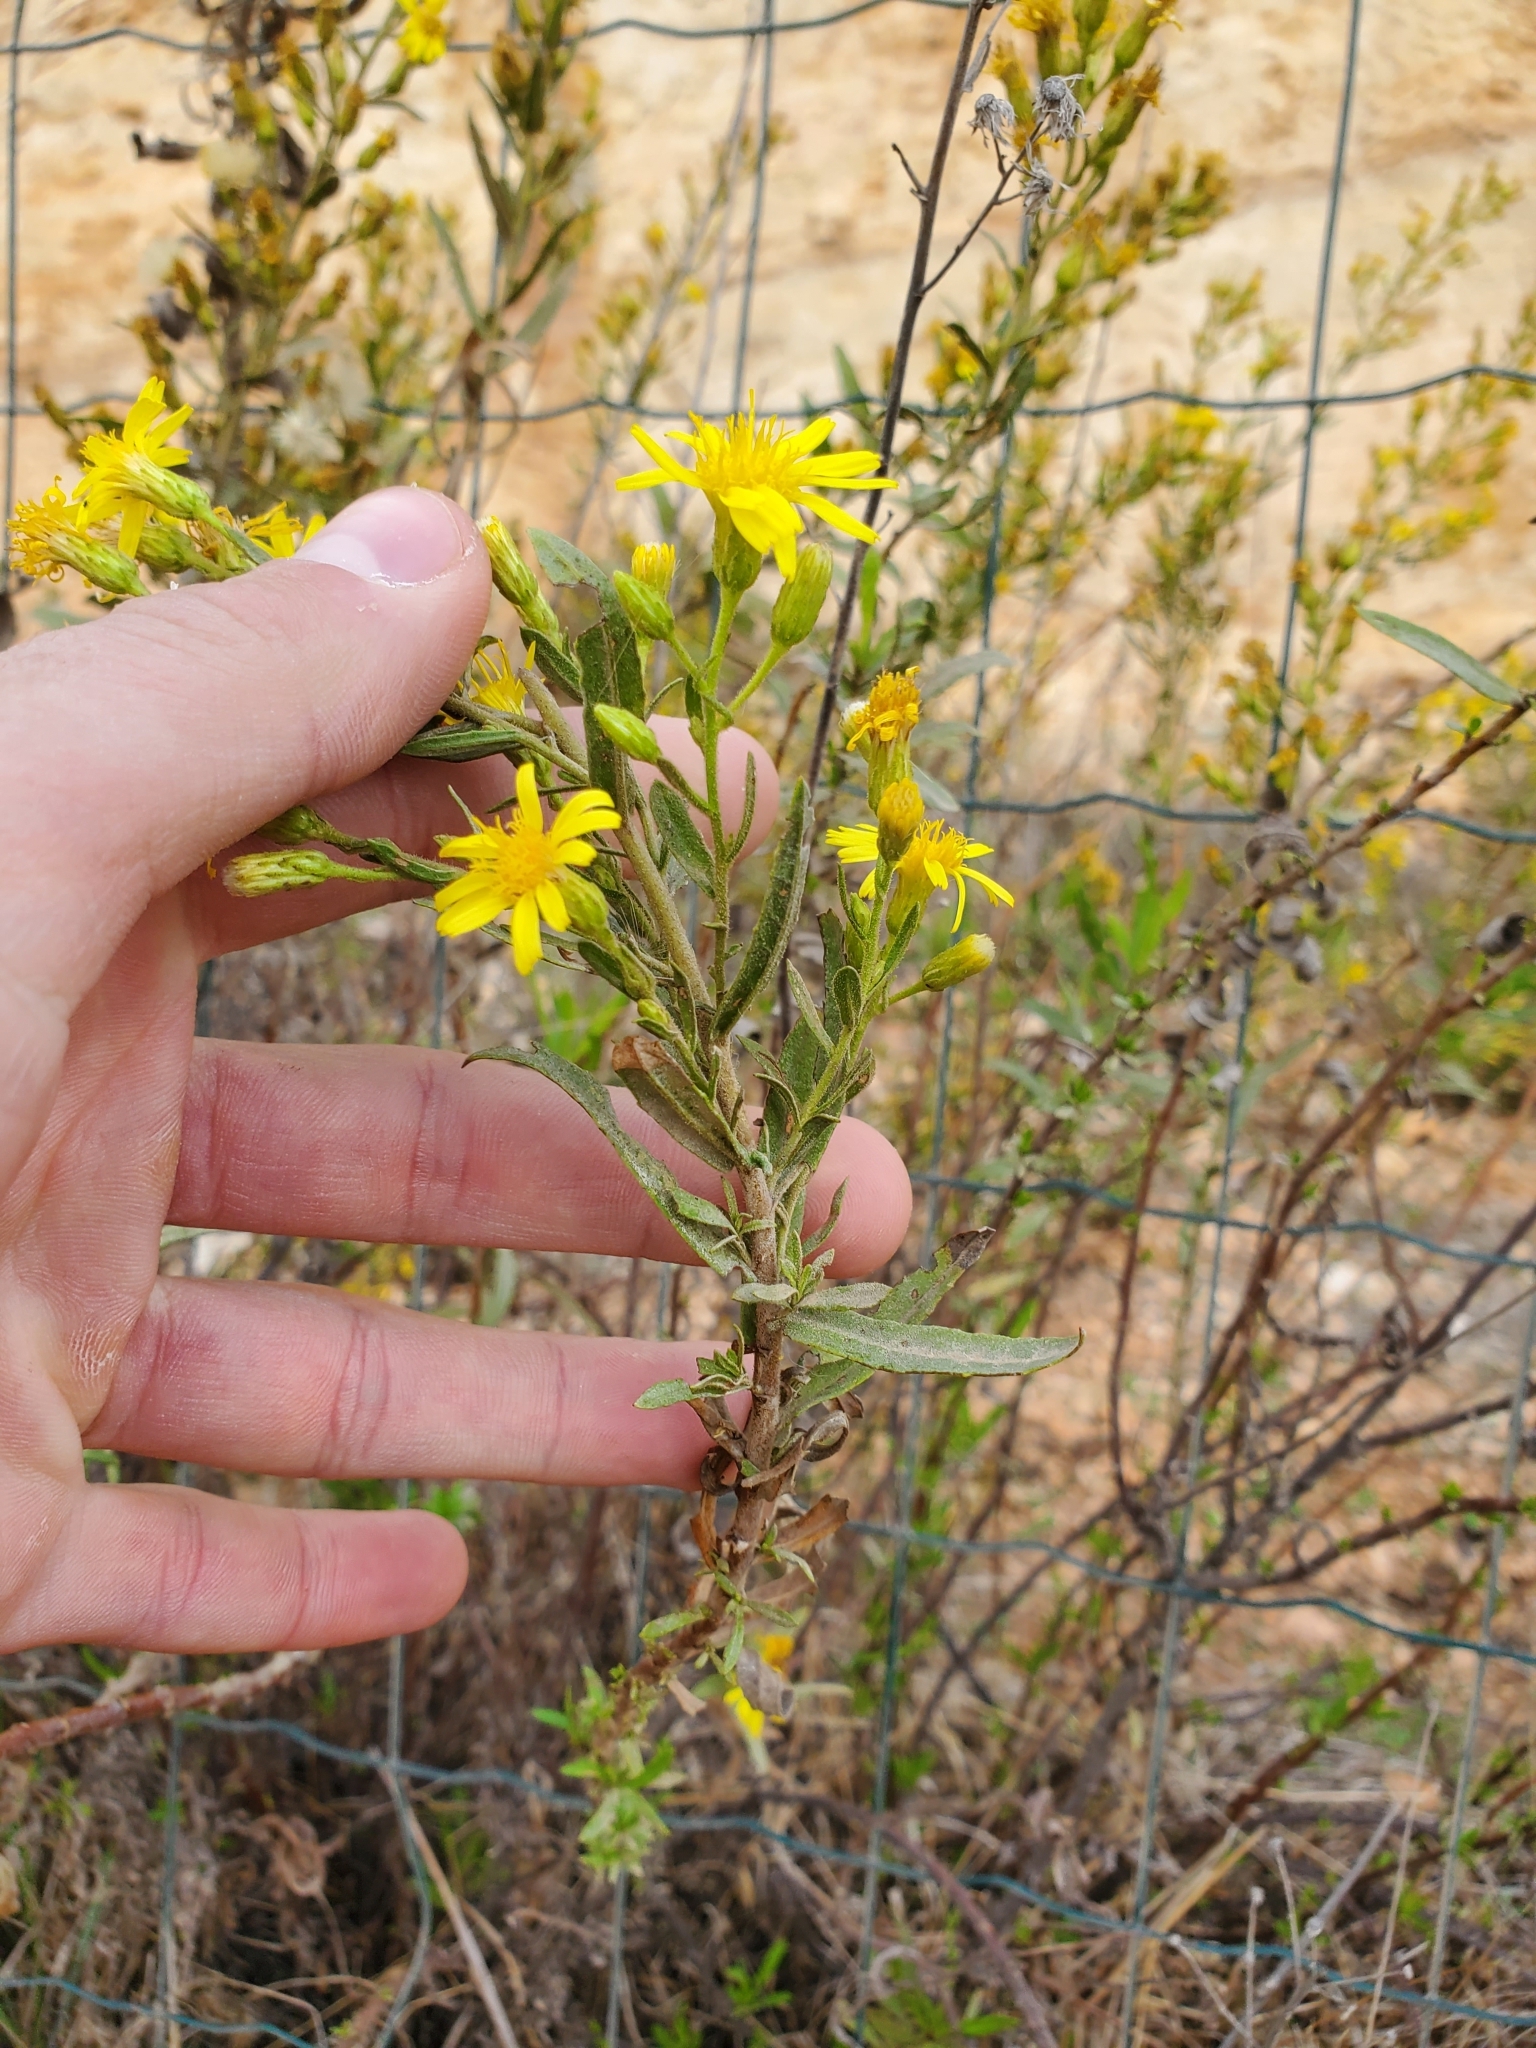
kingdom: Plantae
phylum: Tracheophyta
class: Magnoliopsida
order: Asterales
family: Asteraceae
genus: Dittrichia
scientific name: Dittrichia viscosa
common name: Woody fleabane
